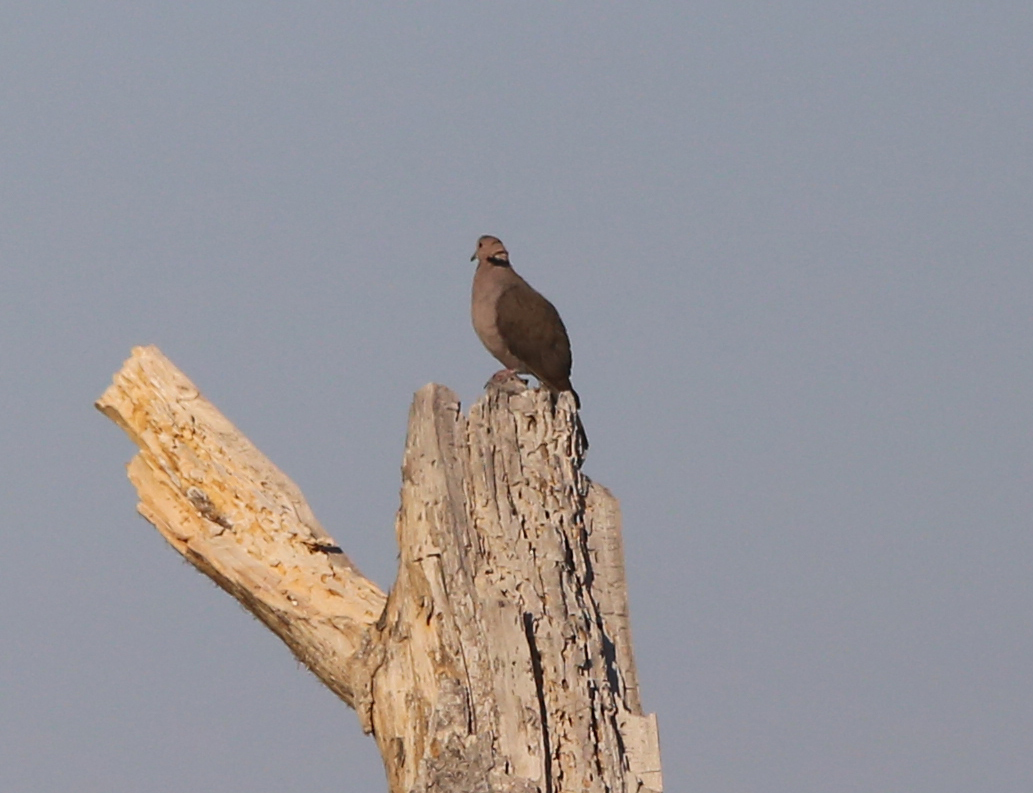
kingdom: Animalia
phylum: Chordata
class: Aves
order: Columbiformes
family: Columbidae
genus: Streptopelia
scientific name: Streptopelia semitorquata
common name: Red-eyed dove
